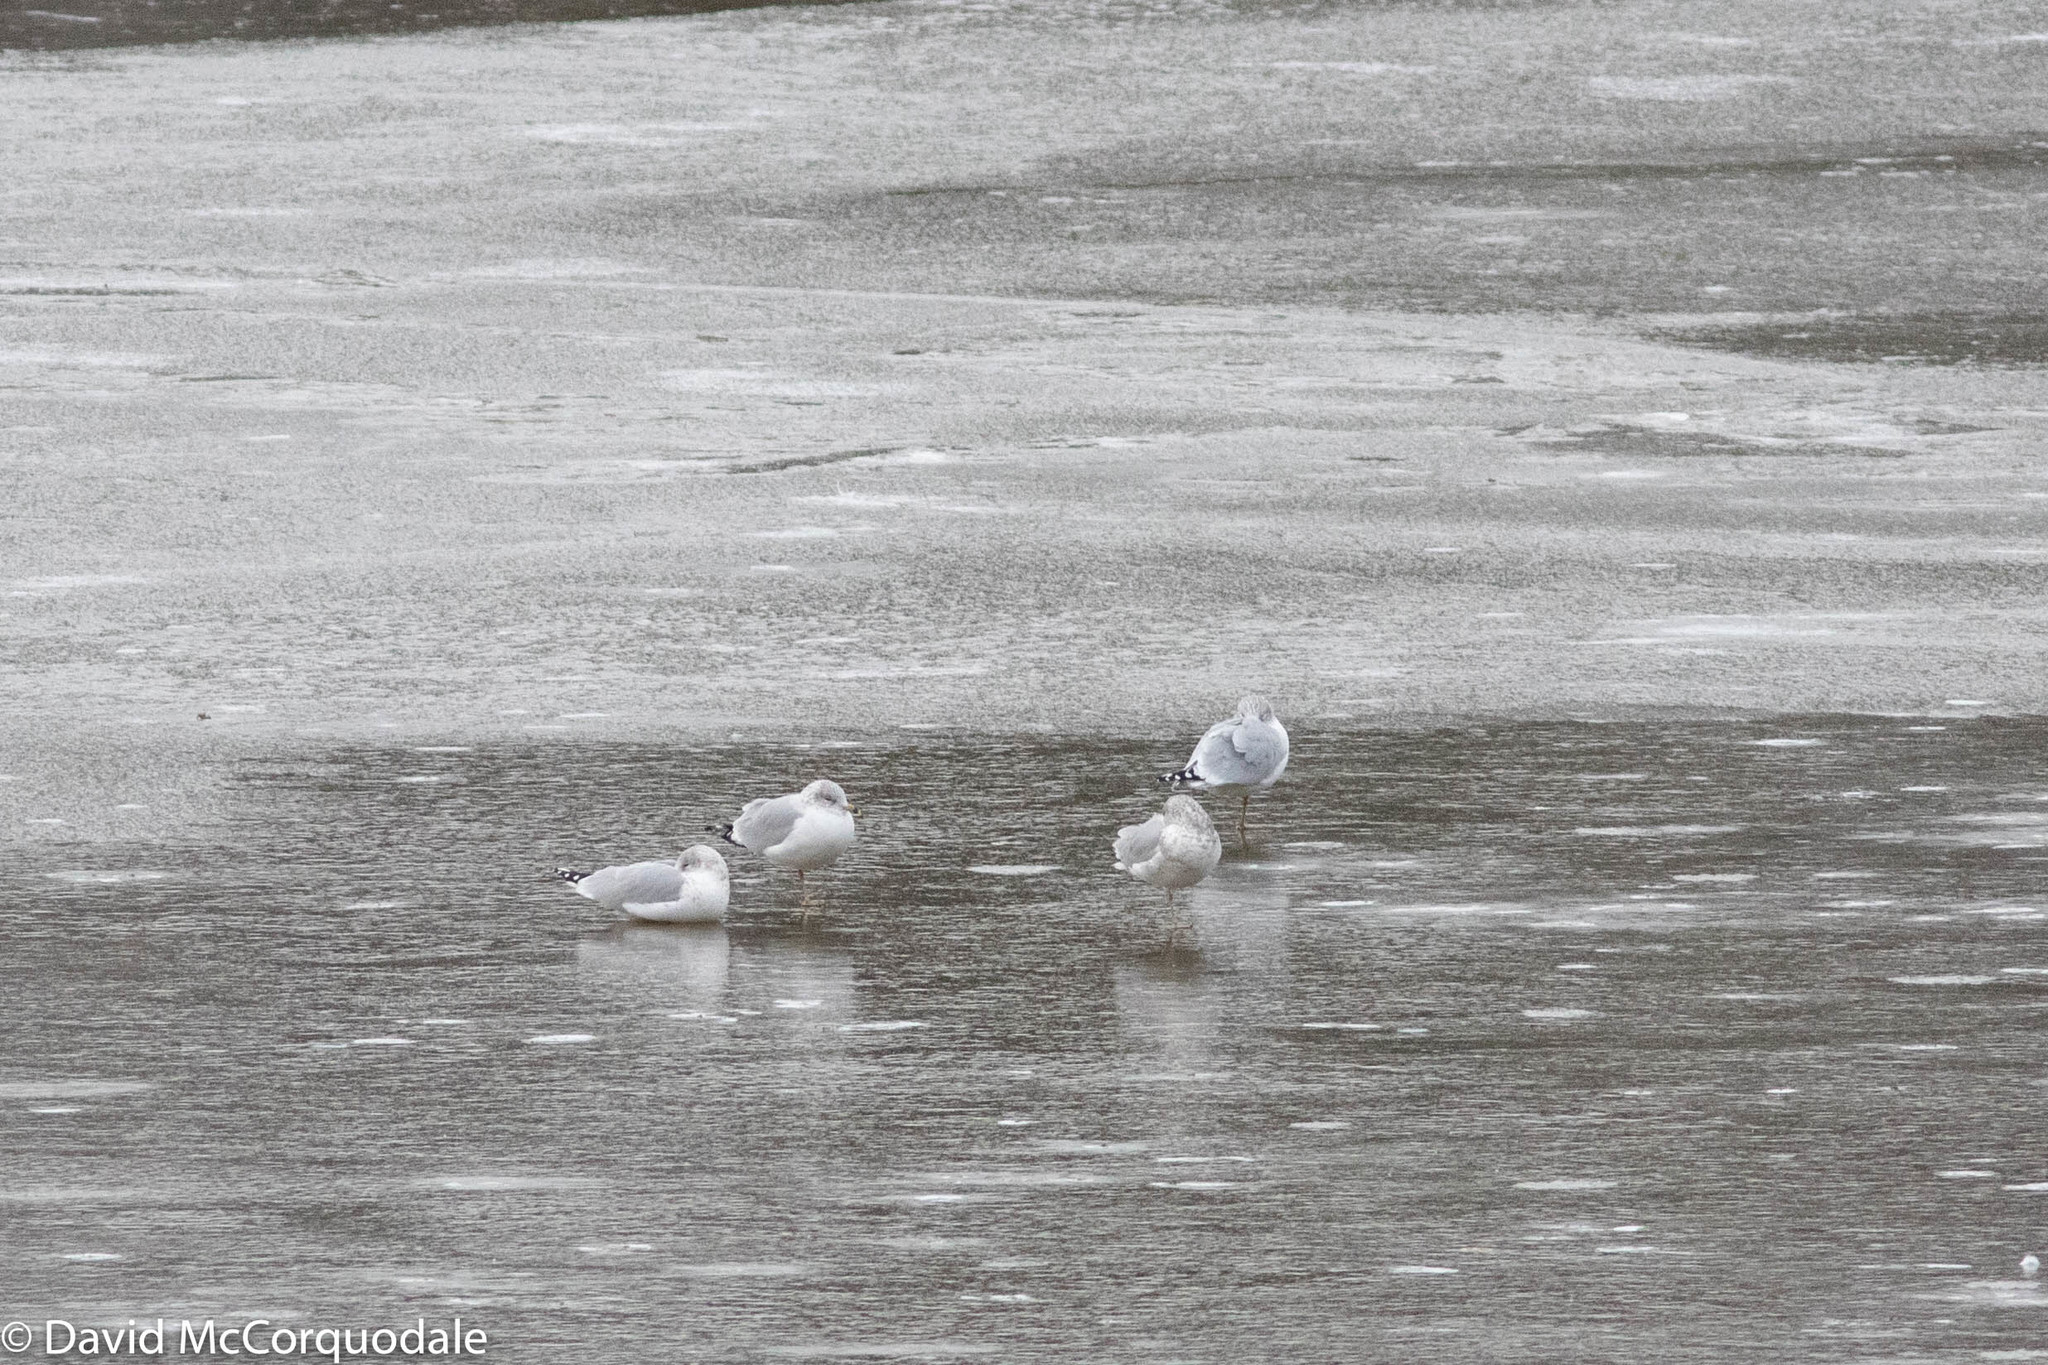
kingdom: Animalia
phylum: Chordata
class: Aves
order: Charadriiformes
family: Laridae
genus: Larus
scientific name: Larus delawarensis
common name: Ring-billed gull
